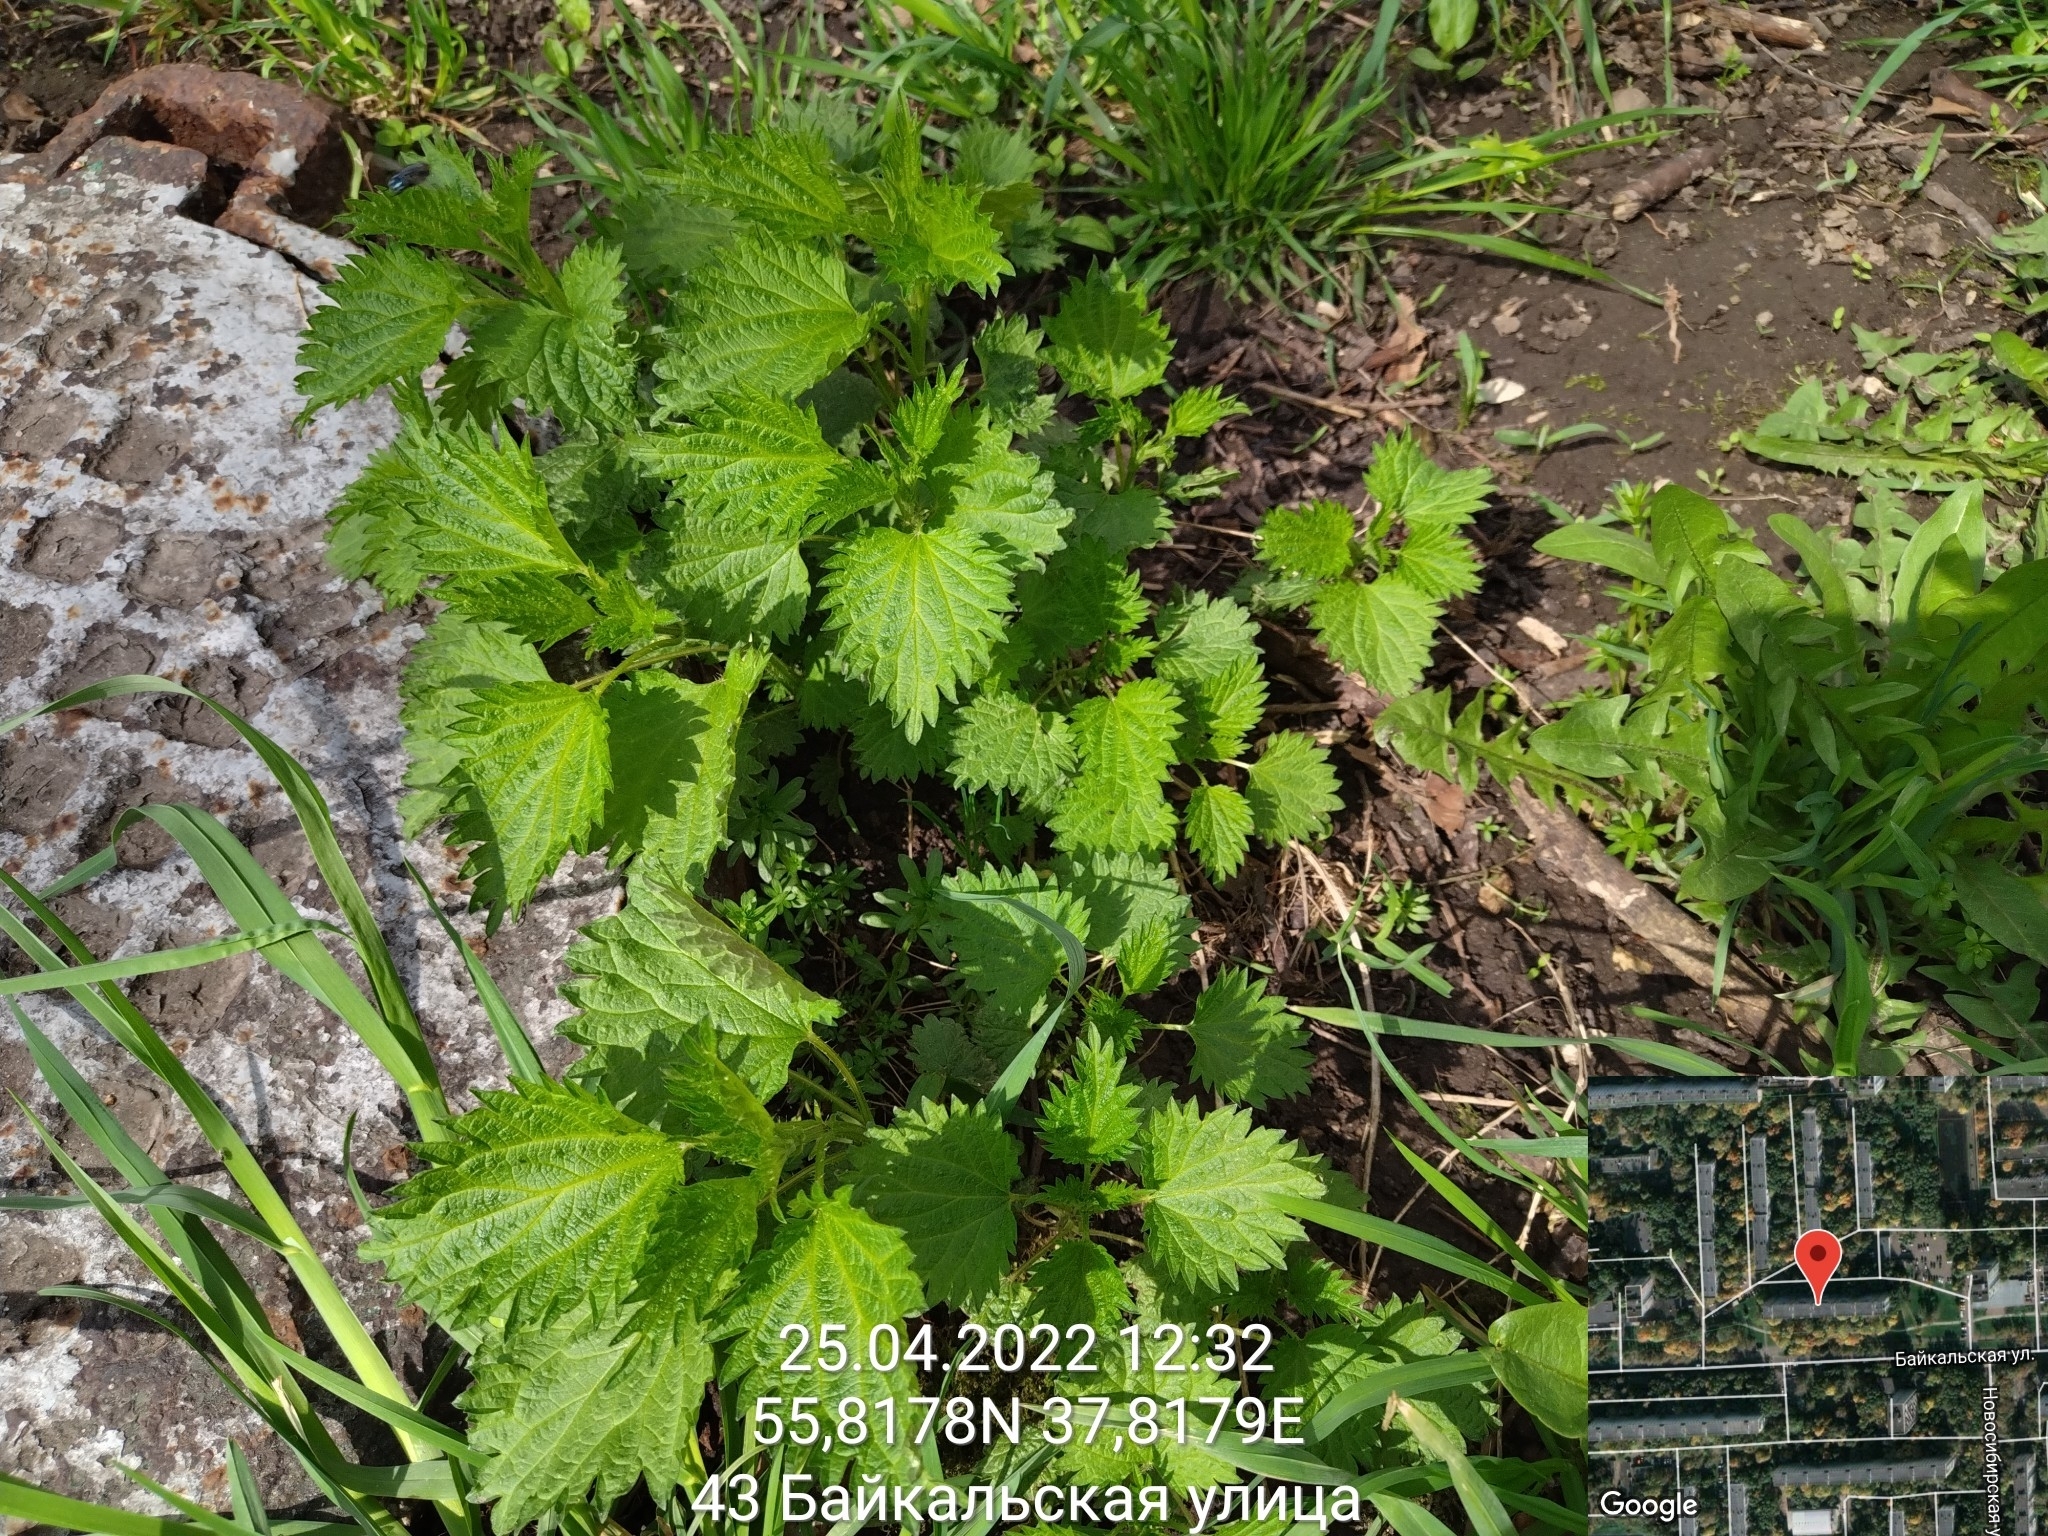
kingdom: Plantae
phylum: Tracheophyta
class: Magnoliopsida
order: Rosales
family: Urticaceae
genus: Urtica
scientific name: Urtica dioica
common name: Common nettle
